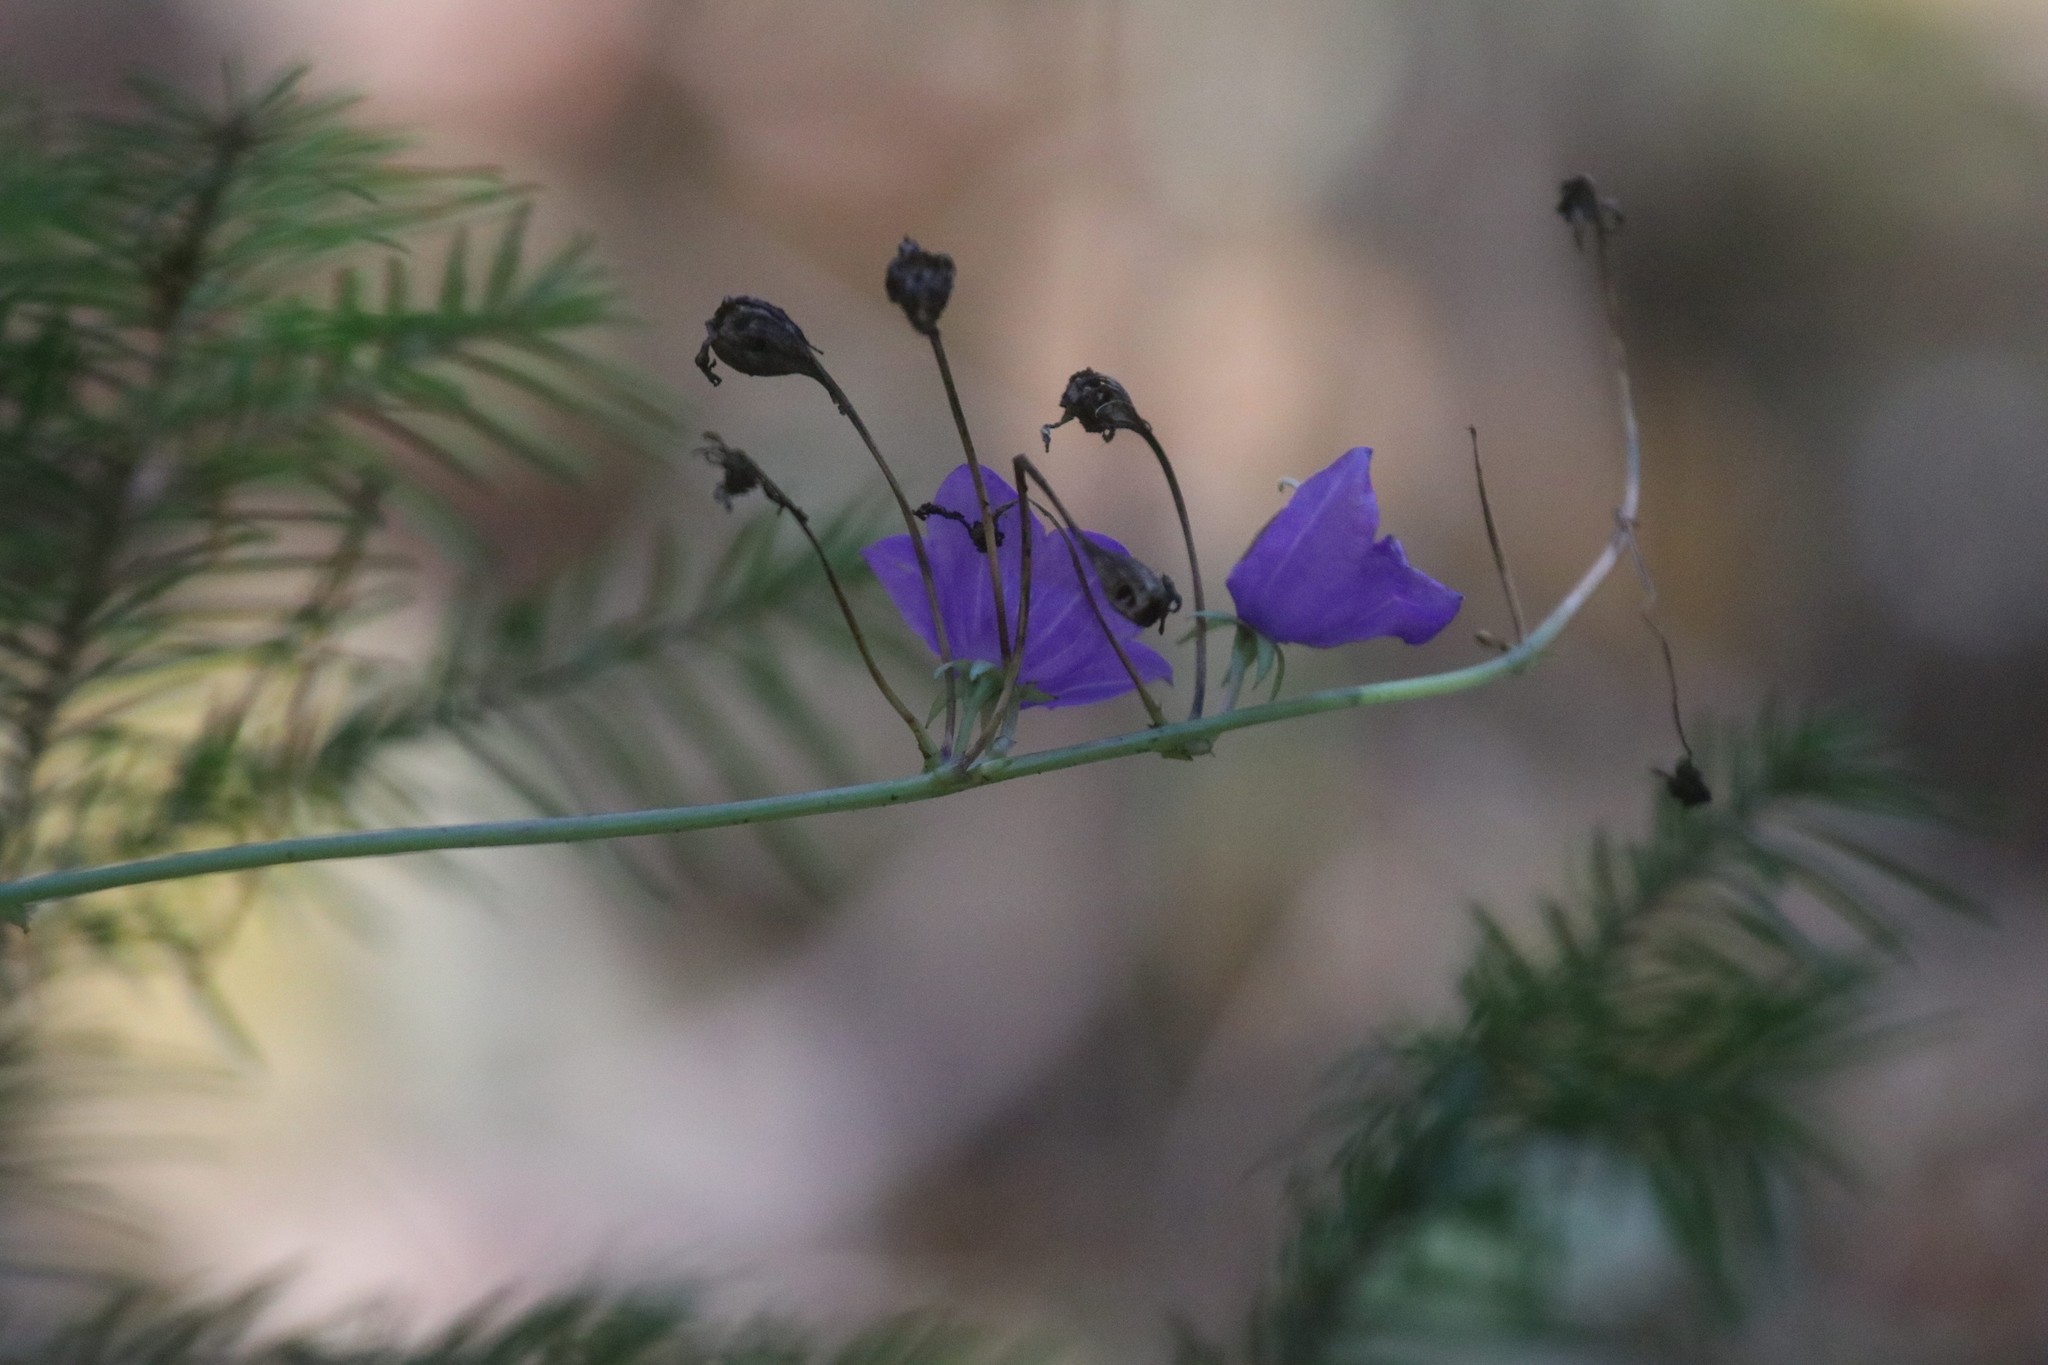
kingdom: Plantae
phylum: Tracheophyta
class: Magnoliopsida
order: Asterales
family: Campanulaceae
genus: Campanula
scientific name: Campanula persicifolia
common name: Peach-leaved bellflower
